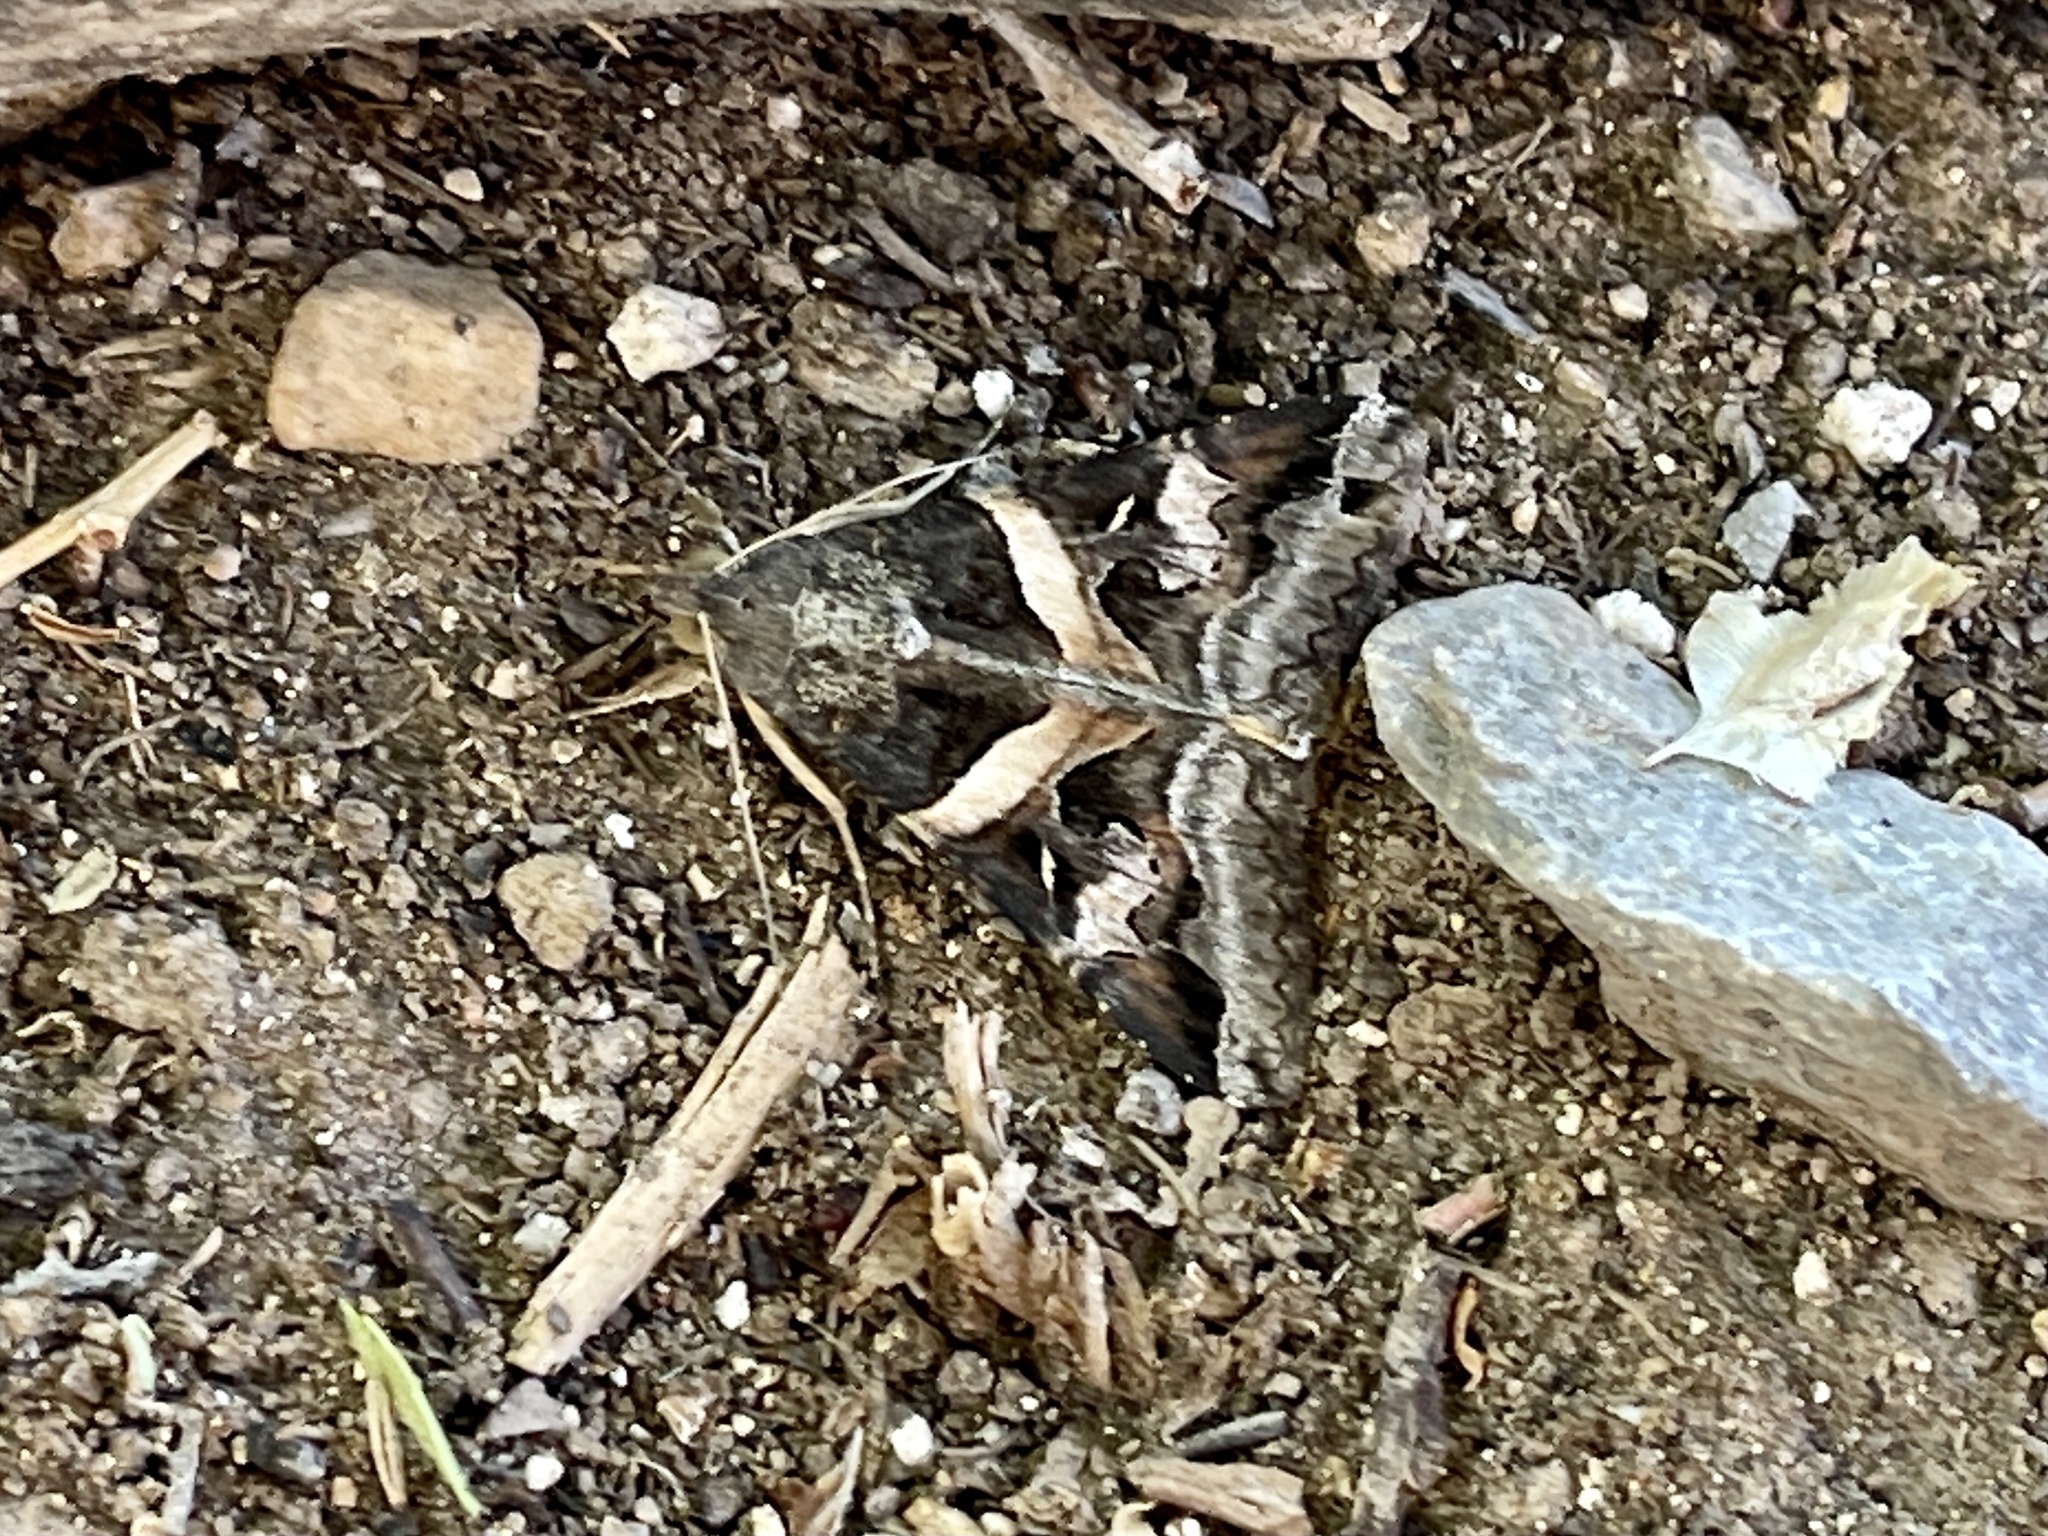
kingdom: Animalia
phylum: Arthropoda
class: Insecta
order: Lepidoptera
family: Erebidae
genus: Melipotis
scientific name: Melipotis indomita
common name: Moth
